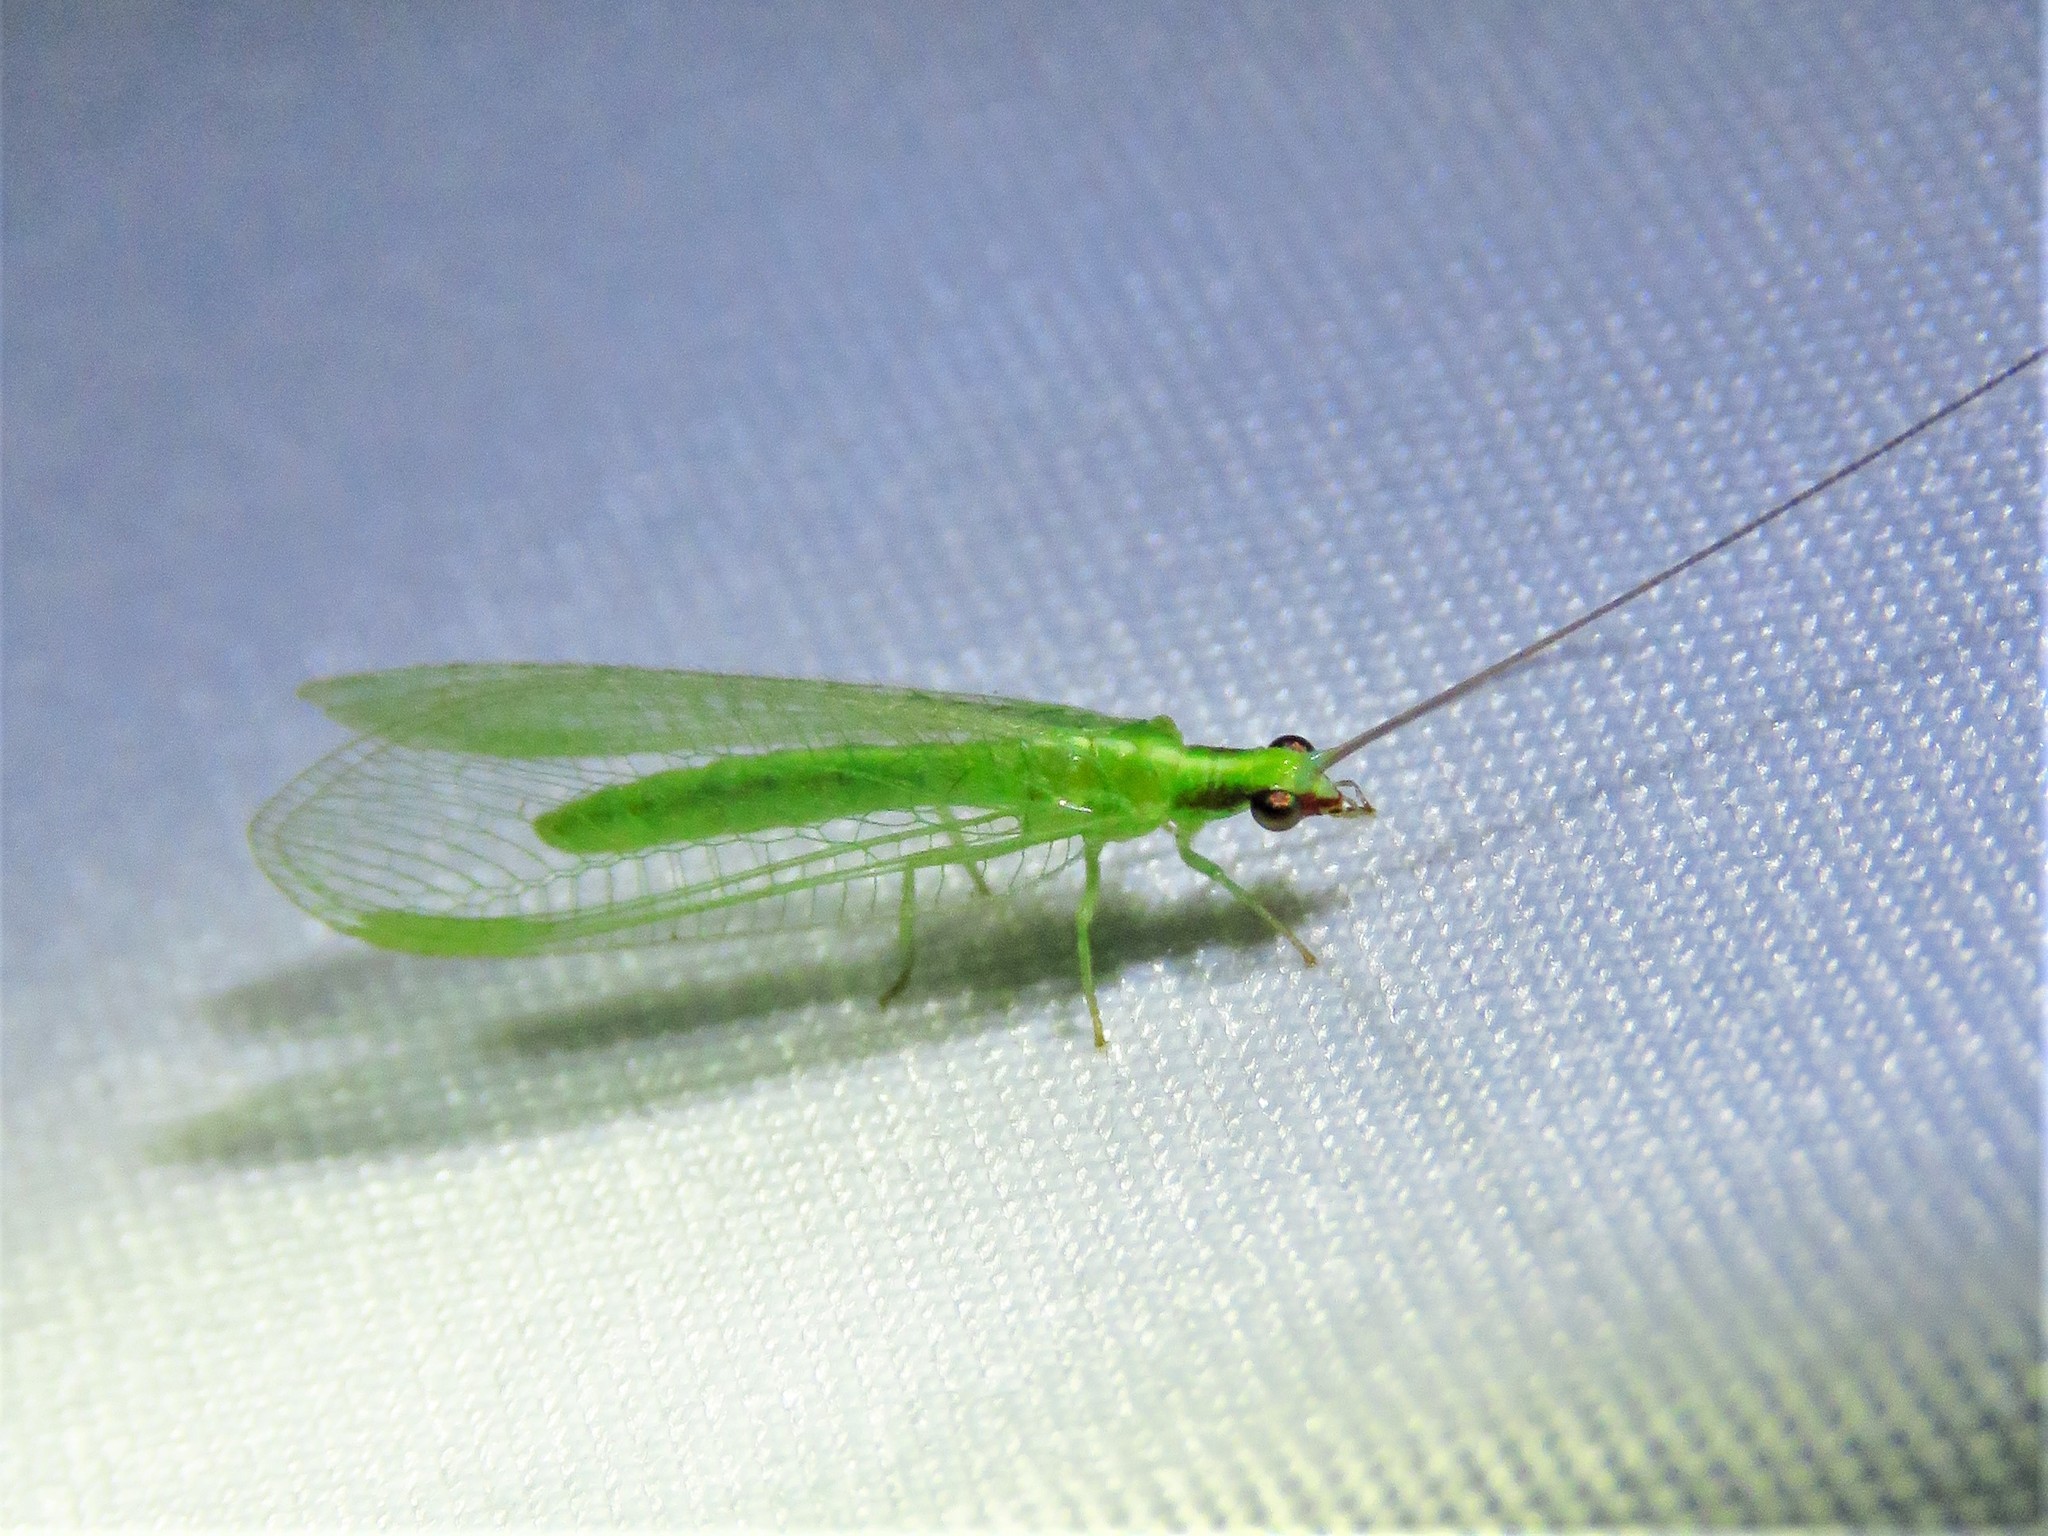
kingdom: Animalia
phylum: Arthropoda
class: Insecta
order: Neuroptera
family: Chrysopidae
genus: Chrysoperla
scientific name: Chrysoperla rufilabris
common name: Red-lipped green lacewing
